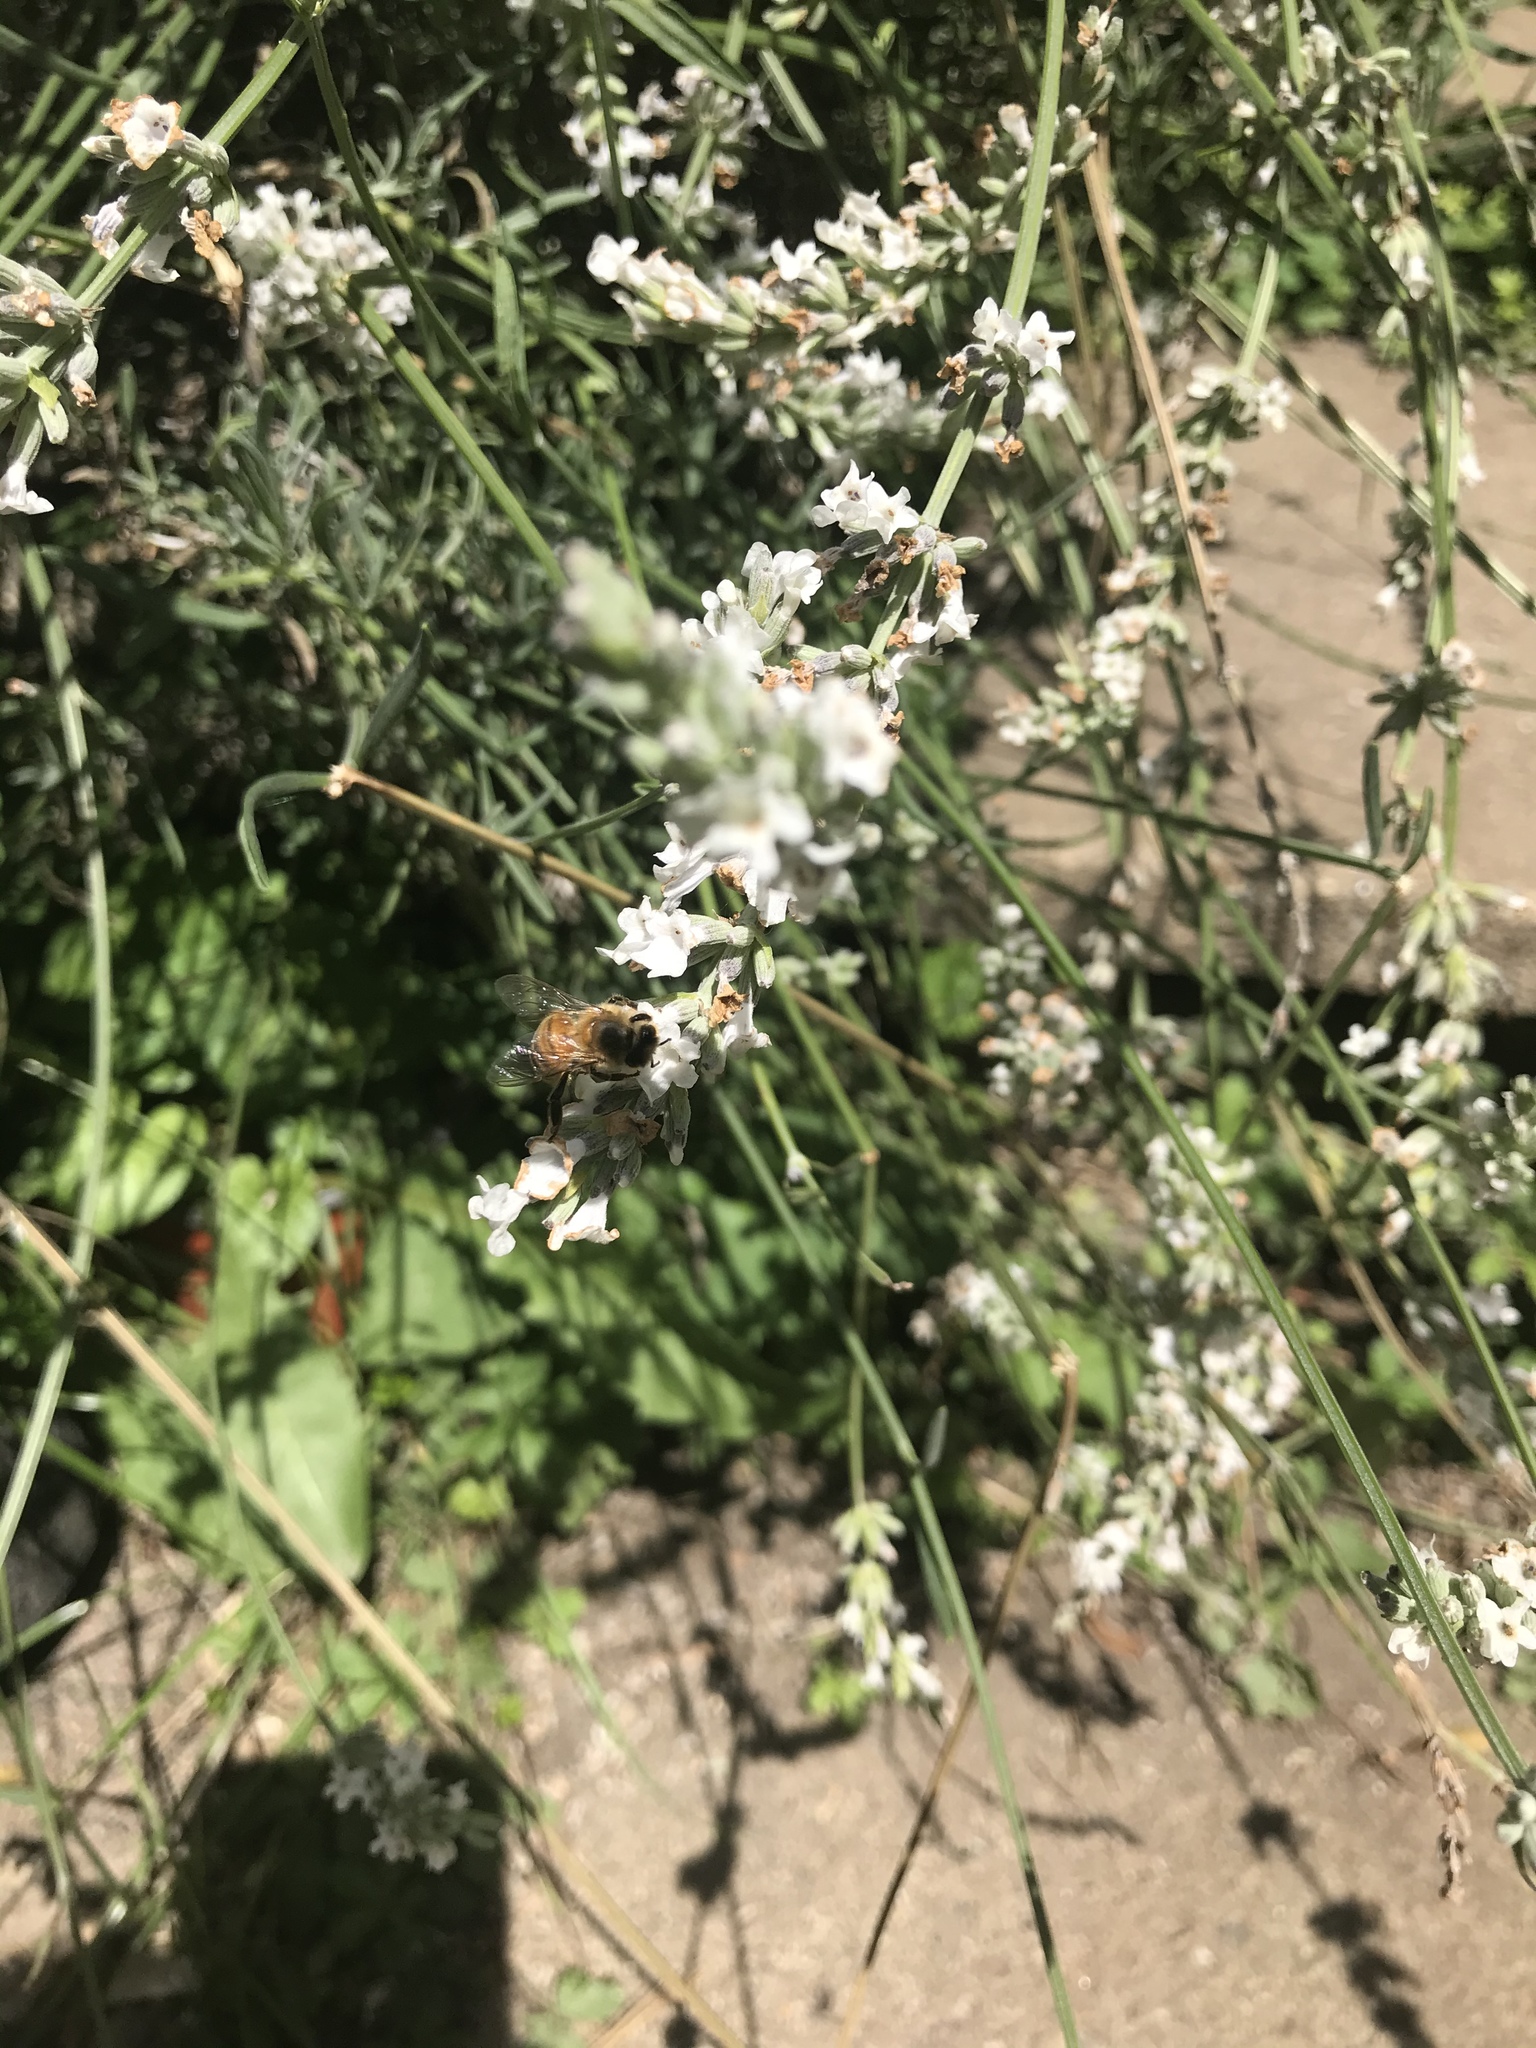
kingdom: Animalia
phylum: Arthropoda
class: Insecta
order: Hymenoptera
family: Apidae
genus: Apis
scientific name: Apis mellifera
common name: Honey bee
